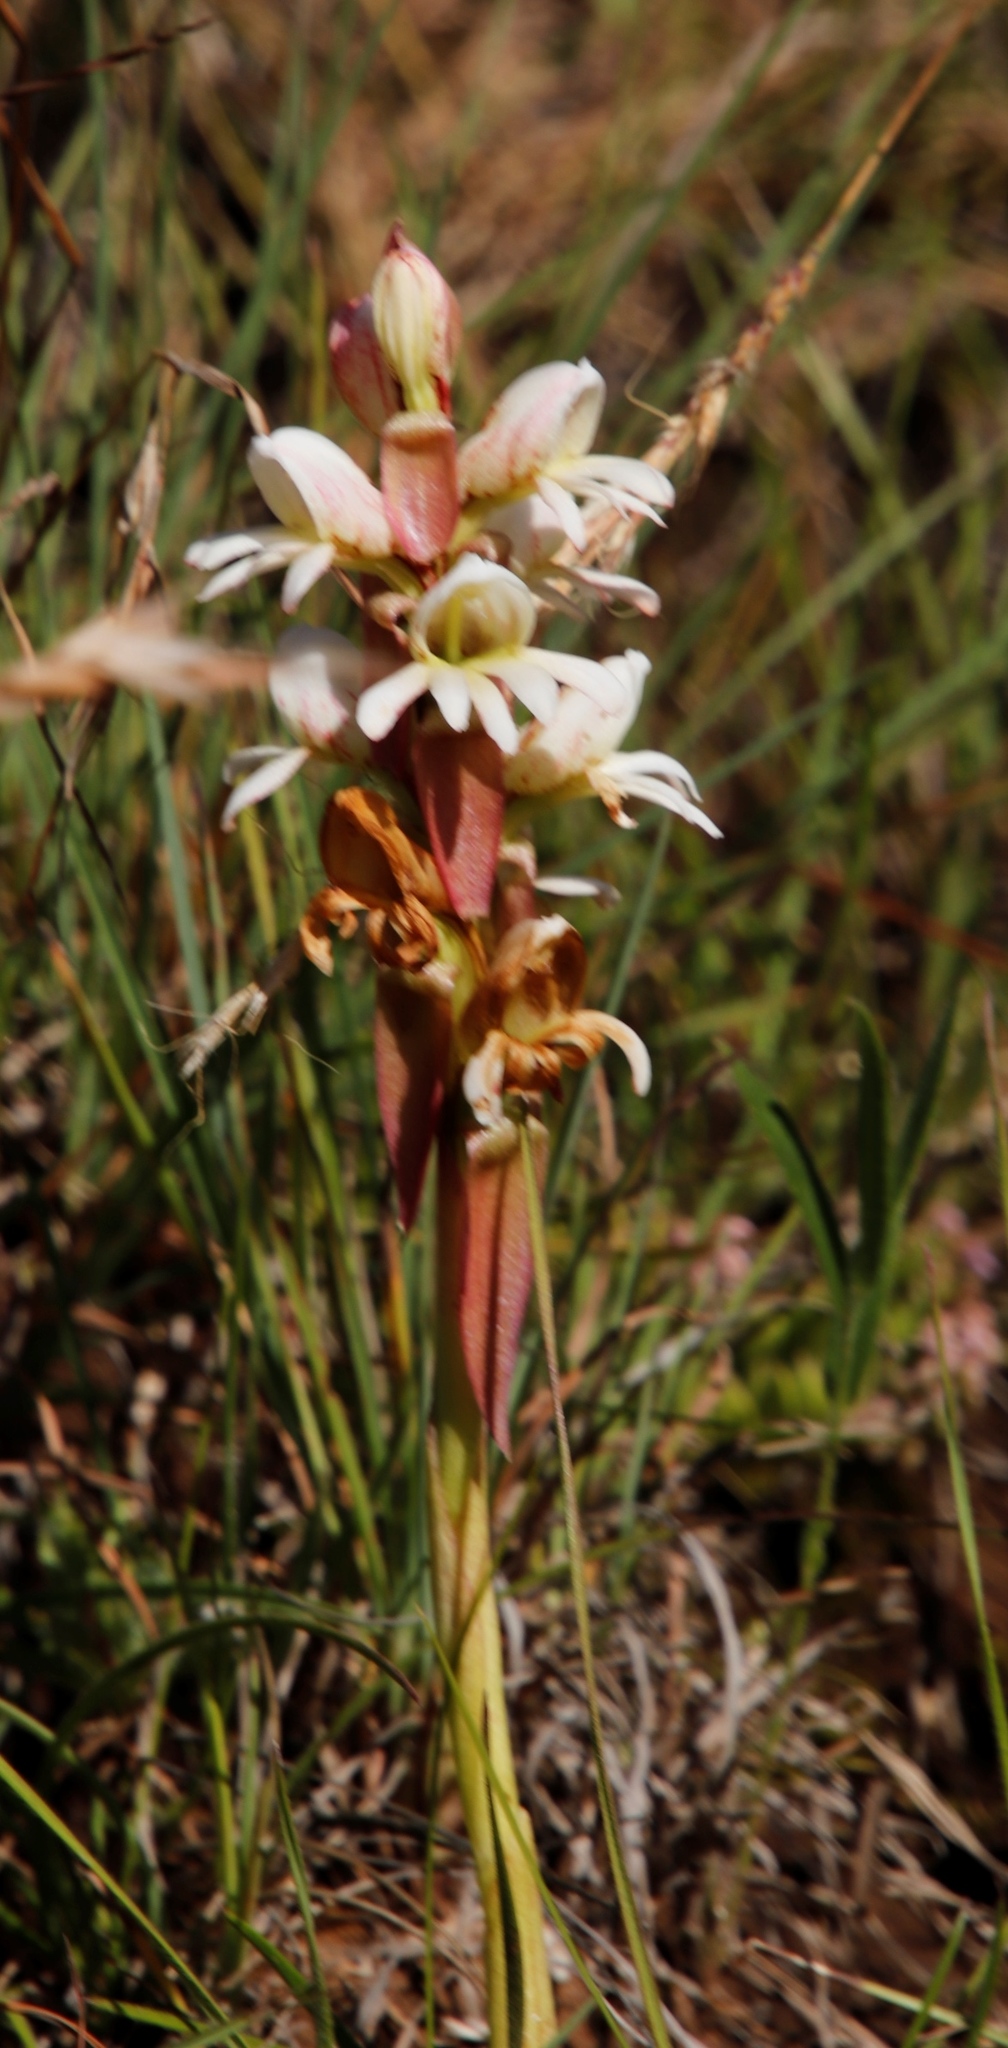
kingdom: Plantae
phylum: Tracheophyta
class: Liliopsida
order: Asparagales
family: Orchidaceae
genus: Satyrium
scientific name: Satyrium sphaerocarpum
